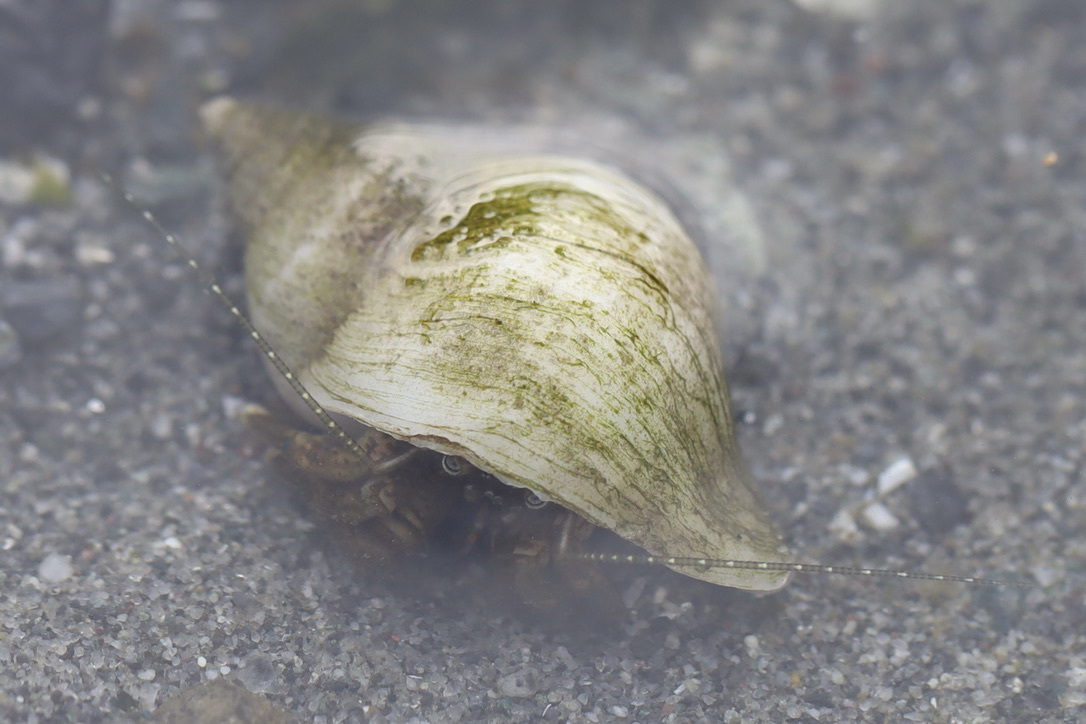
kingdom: Animalia
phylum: Arthropoda
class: Malacostraca
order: Decapoda
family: Paguridae
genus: Pagurus
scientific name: Pagurus hirsutiusculus
